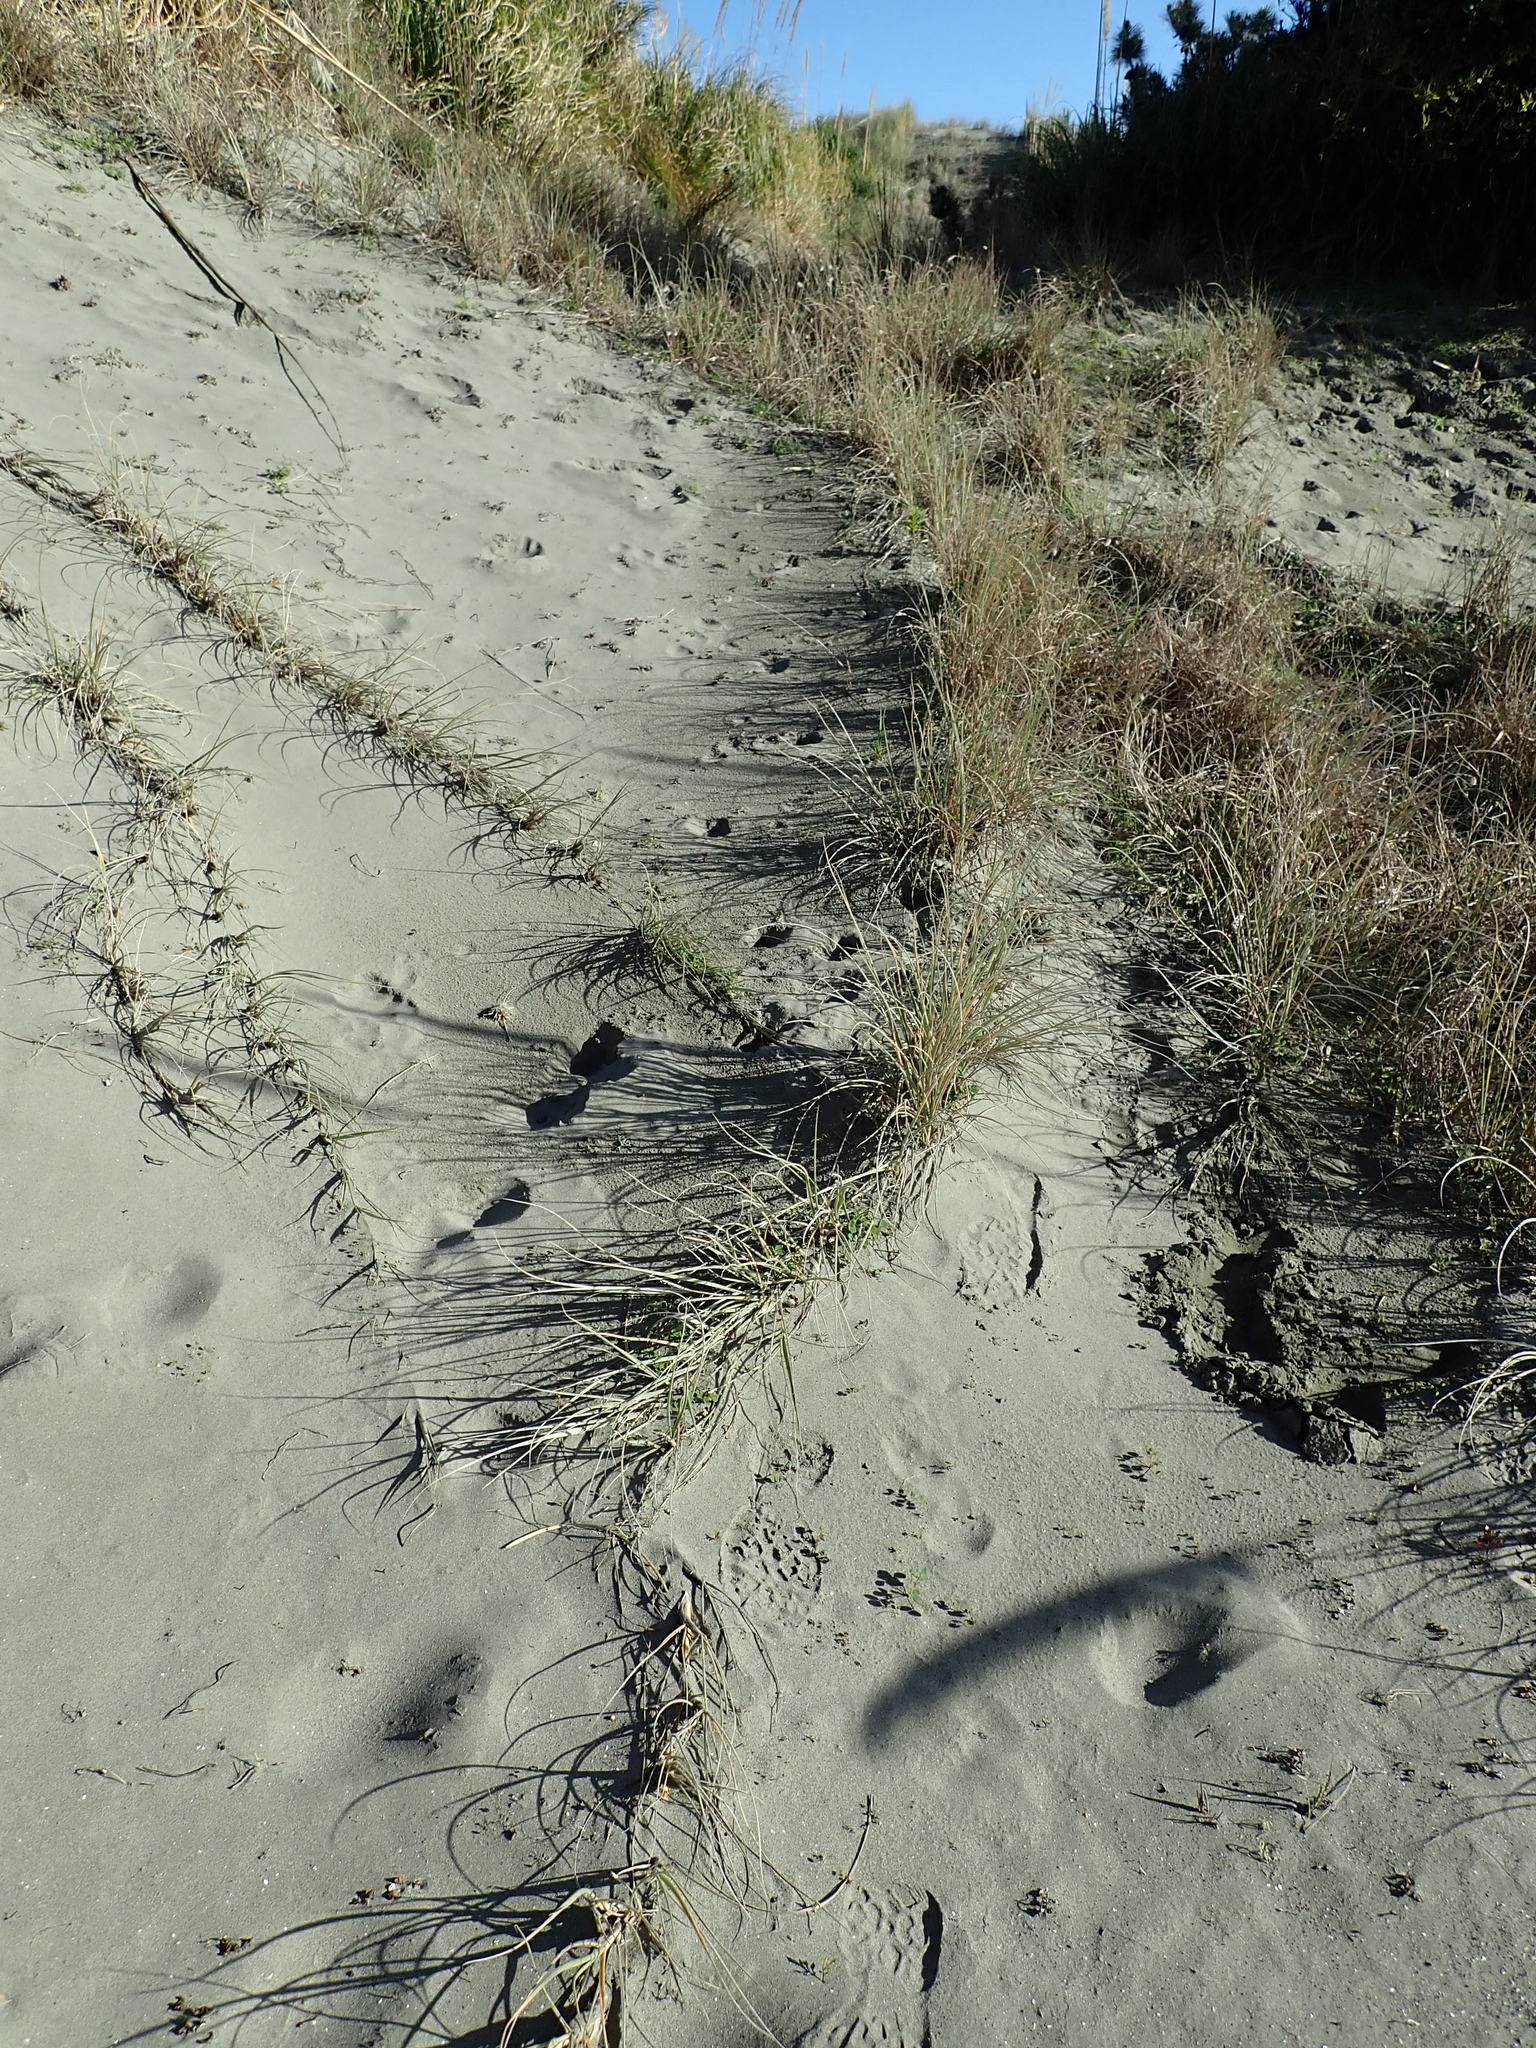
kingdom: Plantae
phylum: Tracheophyta
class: Liliopsida
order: Poales
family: Poaceae
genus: Spinifex
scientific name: Spinifex sericeus
